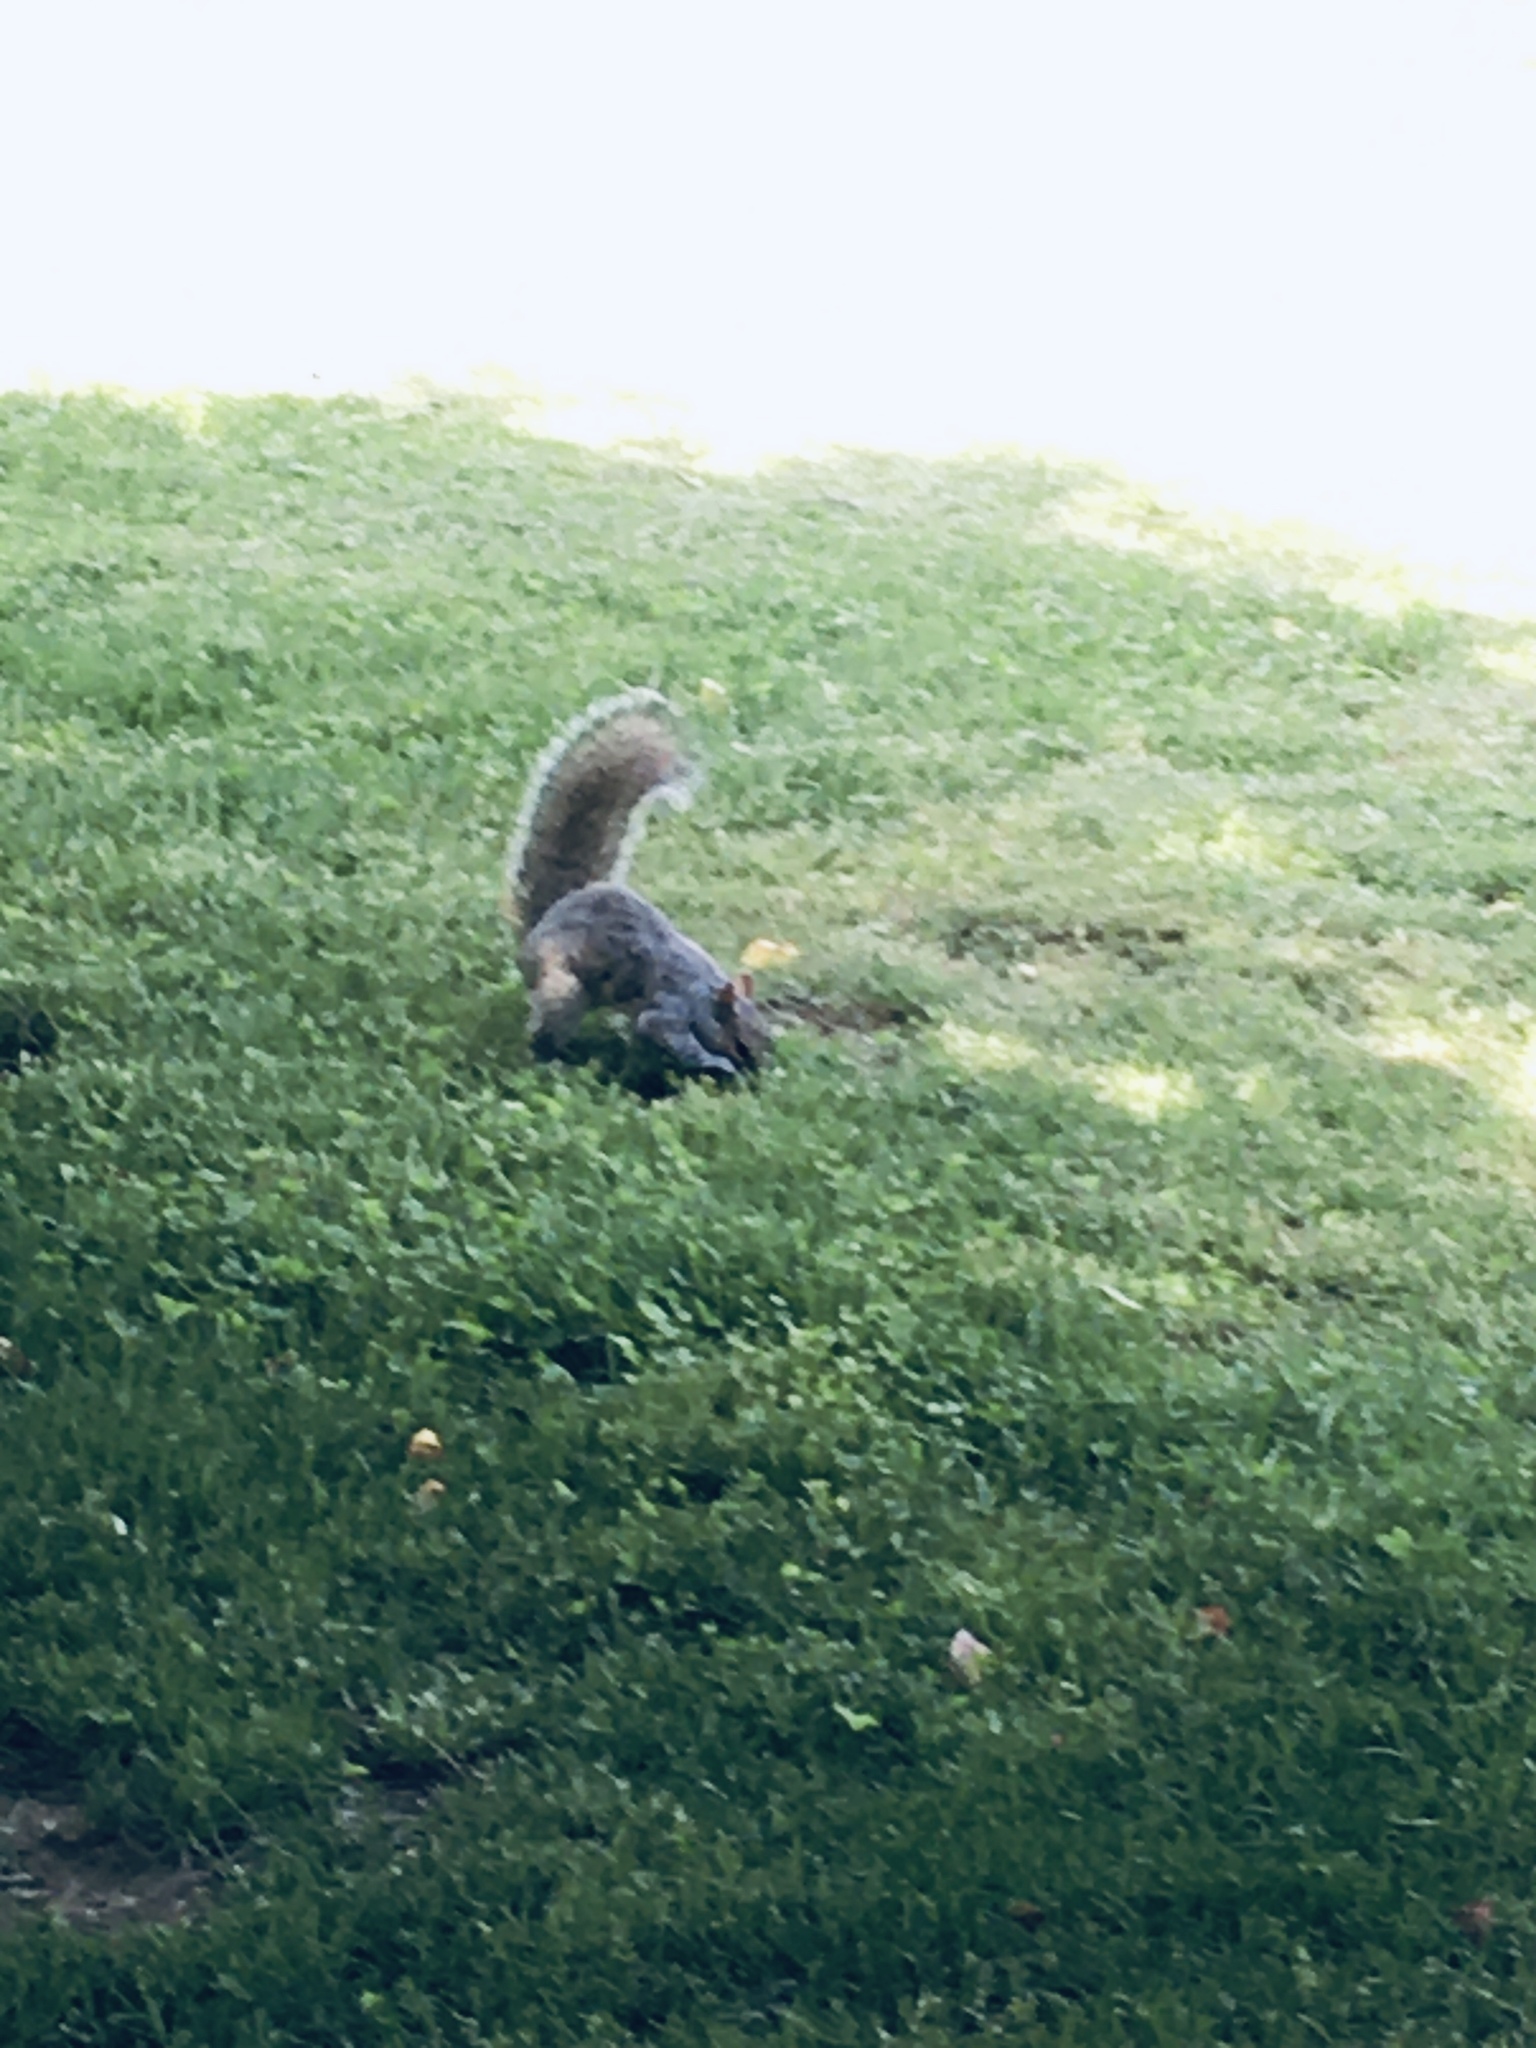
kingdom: Animalia
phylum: Chordata
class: Mammalia
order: Rodentia
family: Sciuridae
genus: Sciurus
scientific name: Sciurus carolinensis
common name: Eastern gray squirrel
